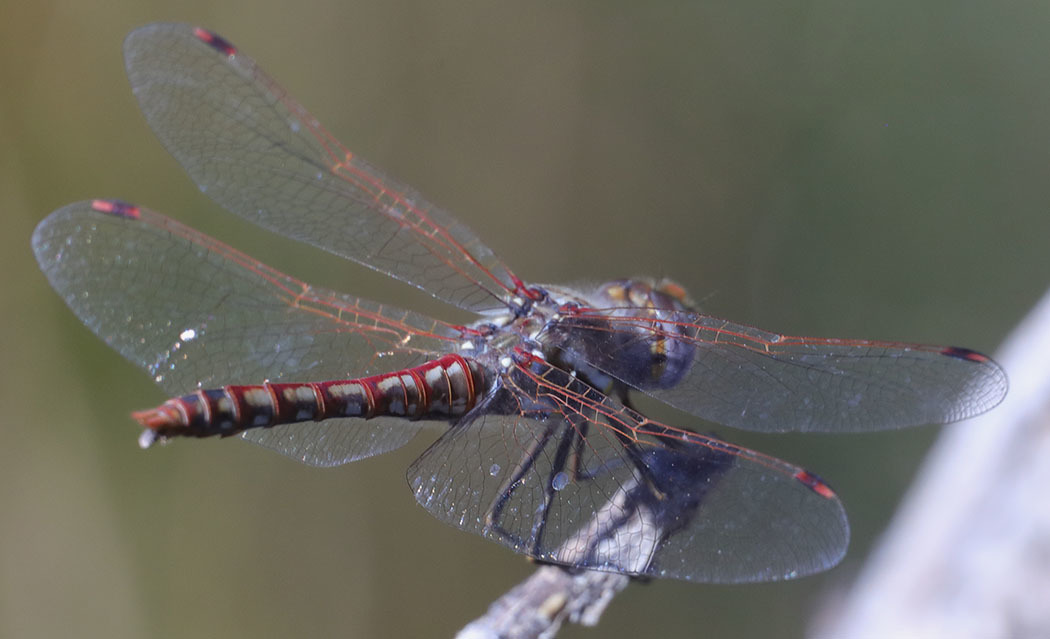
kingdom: Animalia
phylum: Arthropoda
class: Insecta
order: Odonata
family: Libellulidae
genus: Sympetrum
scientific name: Sympetrum corruptum
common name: Variegated meadowhawk
